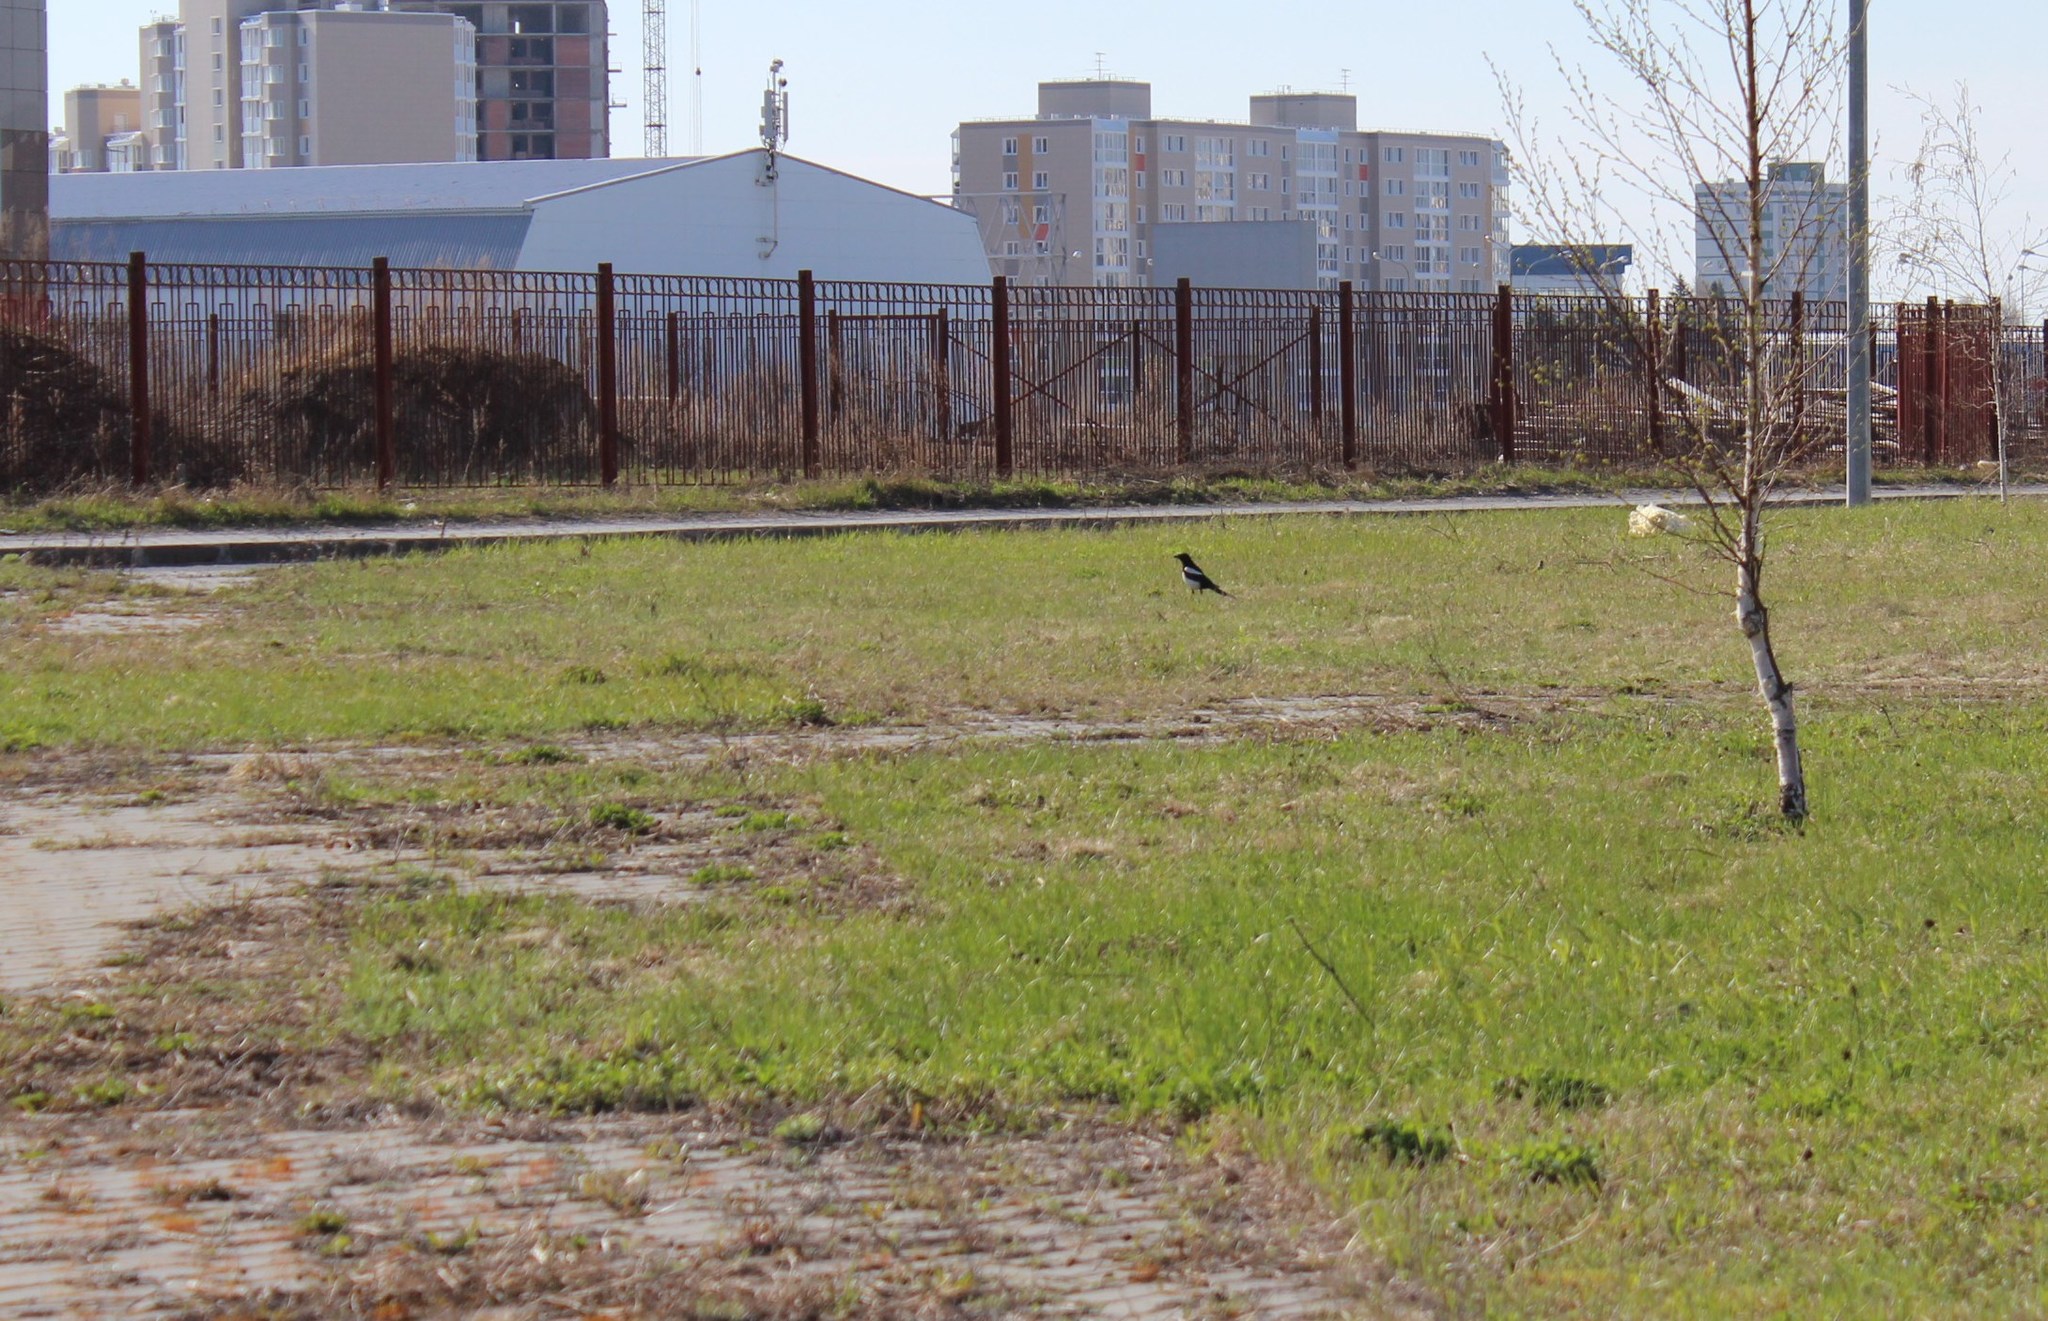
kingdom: Animalia
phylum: Chordata
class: Aves
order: Passeriformes
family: Corvidae
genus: Pica
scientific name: Pica pica
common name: Eurasian magpie
